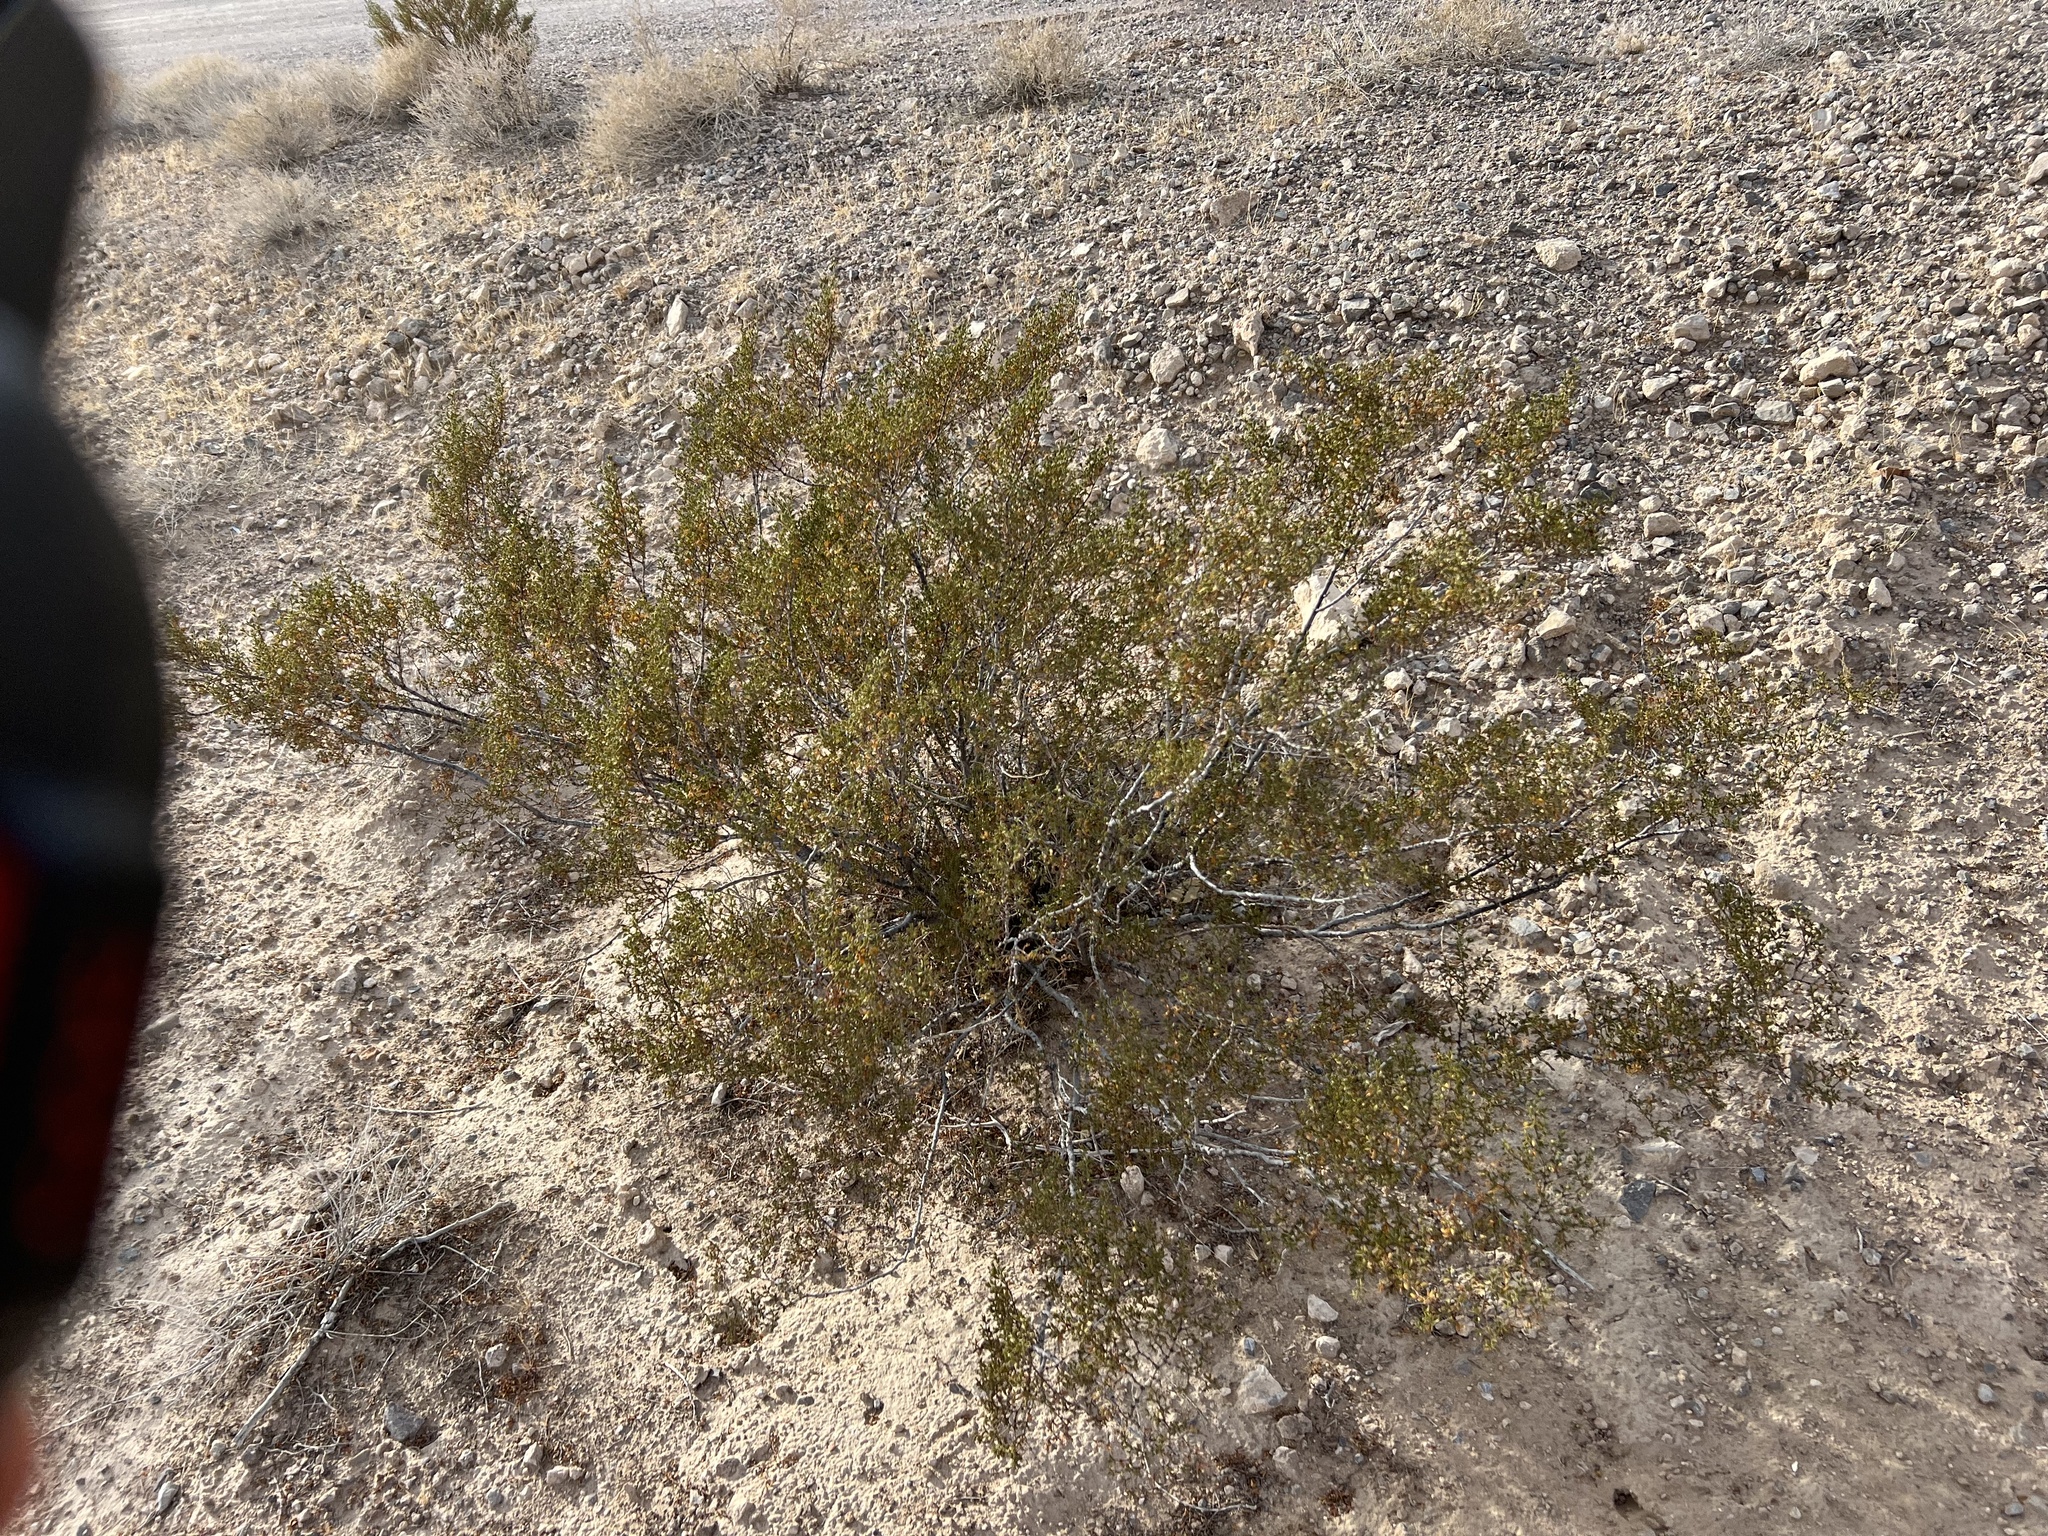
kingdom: Plantae
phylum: Tracheophyta
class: Magnoliopsida
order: Zygophyllales
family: Zygophyllaceae
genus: Larrea
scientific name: Larrea tridentata
